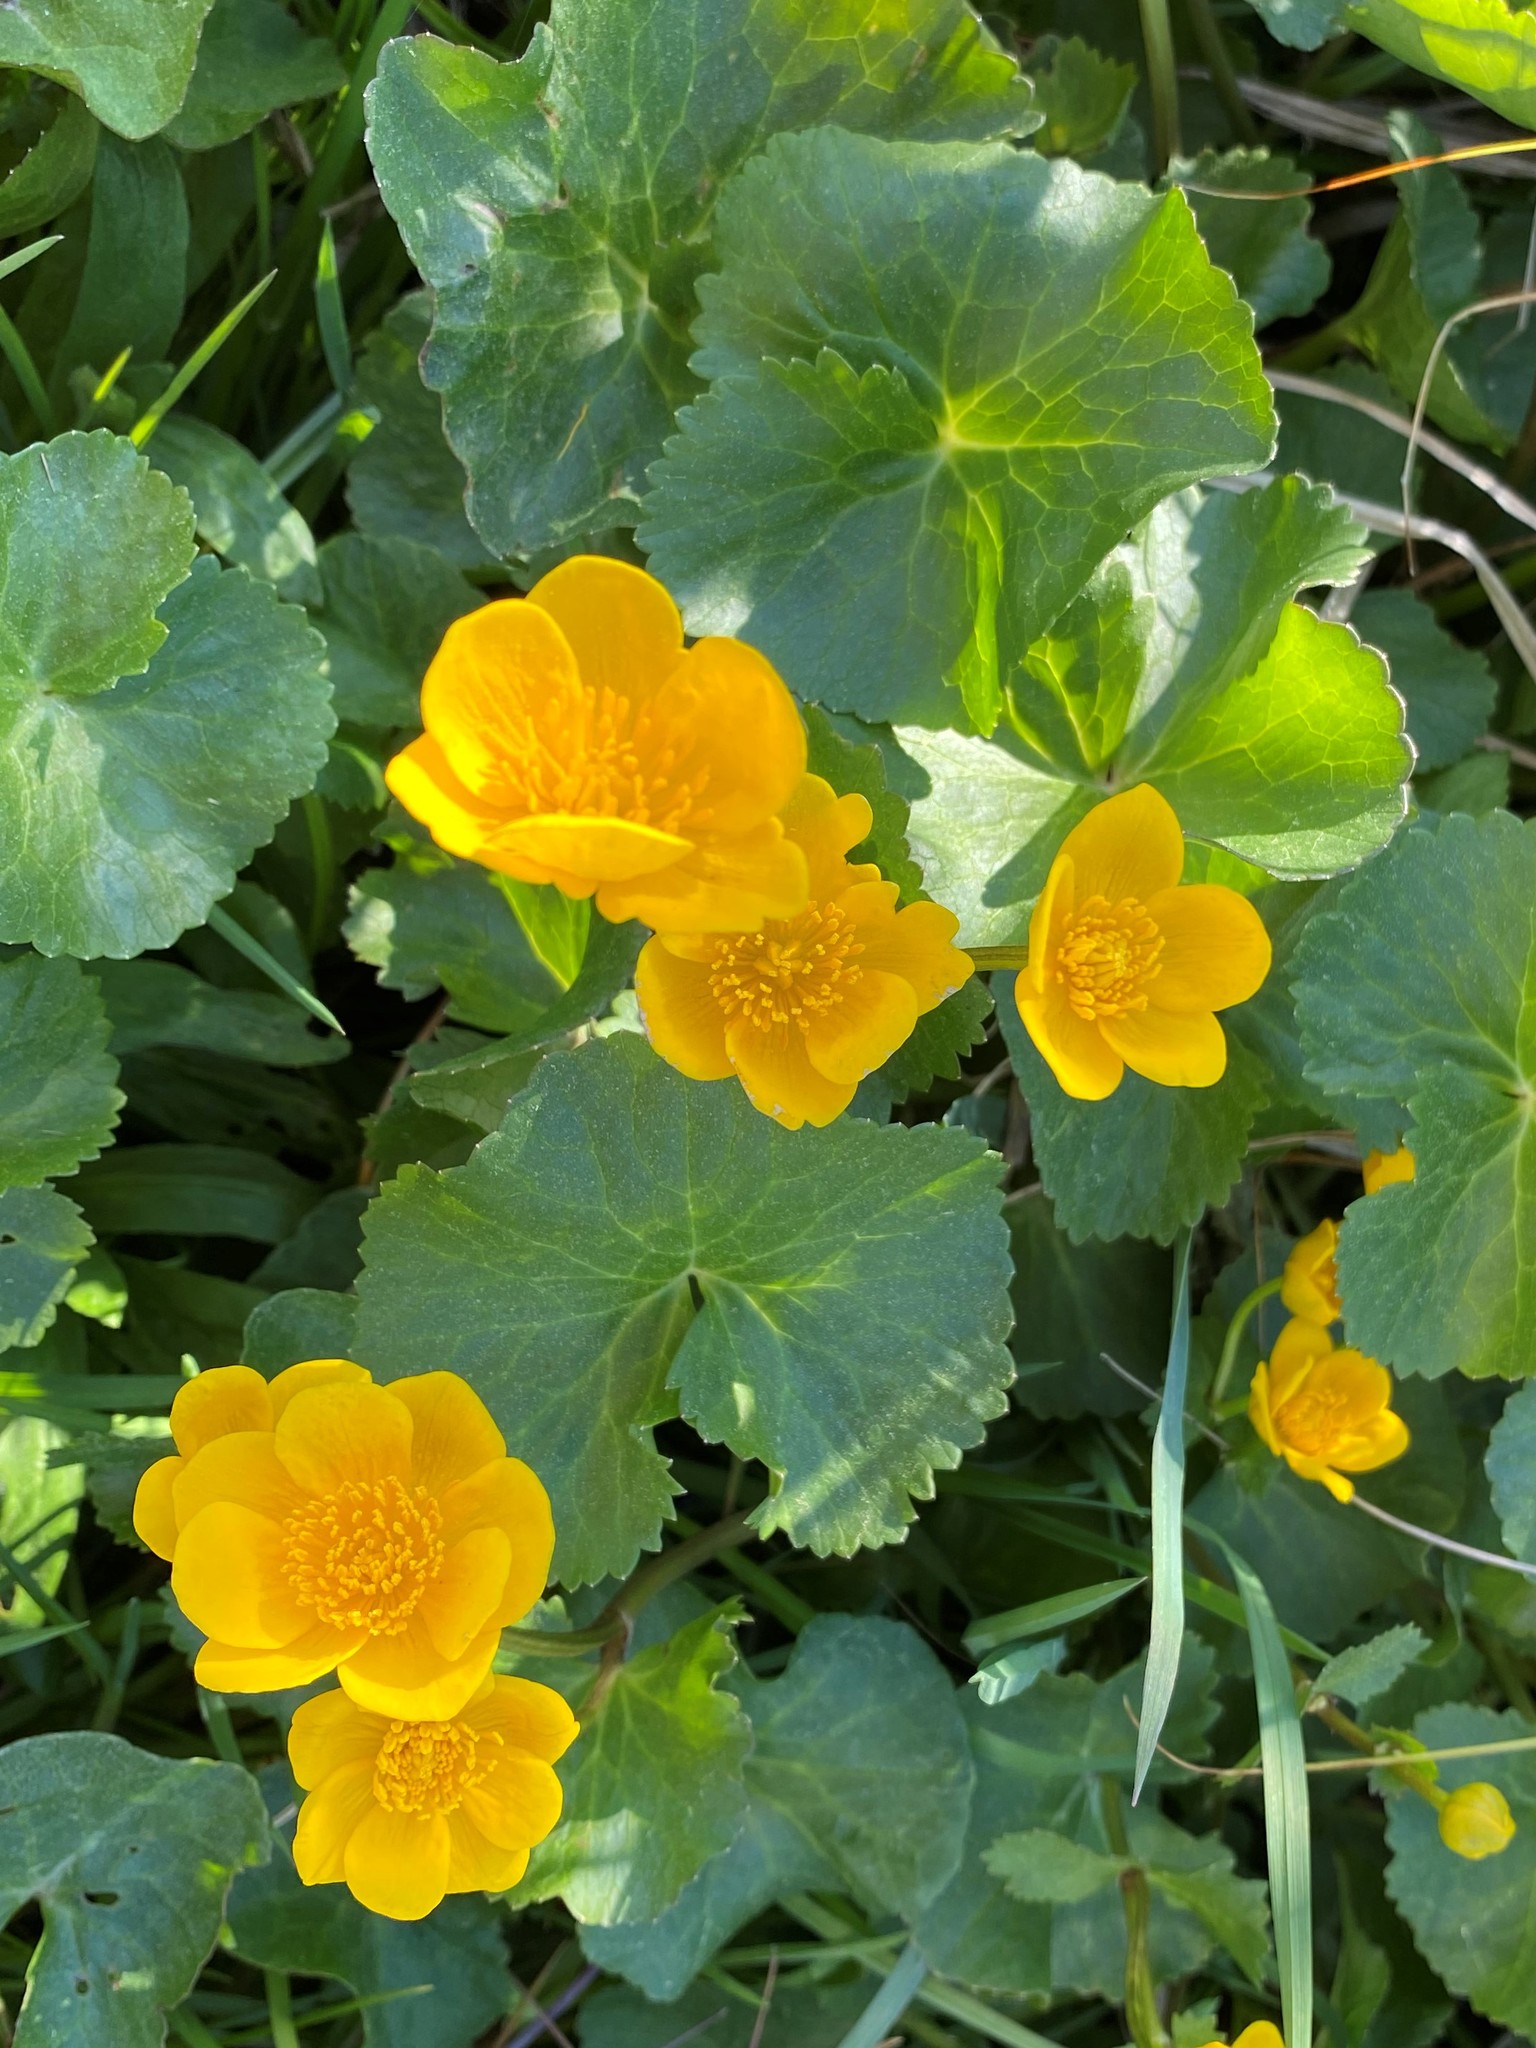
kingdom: Plantae
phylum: Tracheophyta
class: Magnoliopsida
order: Ranunculales
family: Ranunculaceae
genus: Caltha
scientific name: Caltha palustris
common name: Marsh marigold
